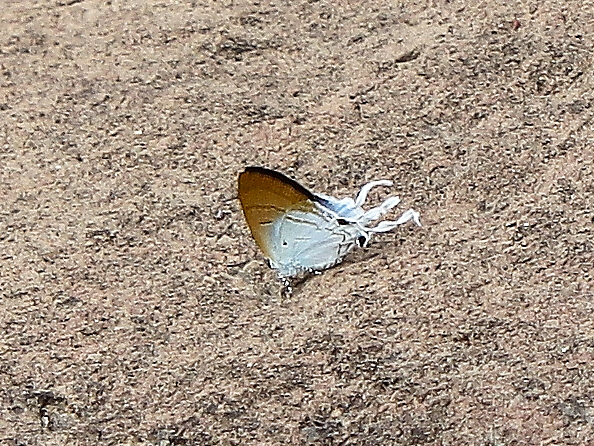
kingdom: Animalia
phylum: Arthropoda
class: Insecta
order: Lepidoptera
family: Lycaenidae
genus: Zeltus
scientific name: Zeltus amasa
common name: Fluffy tit
